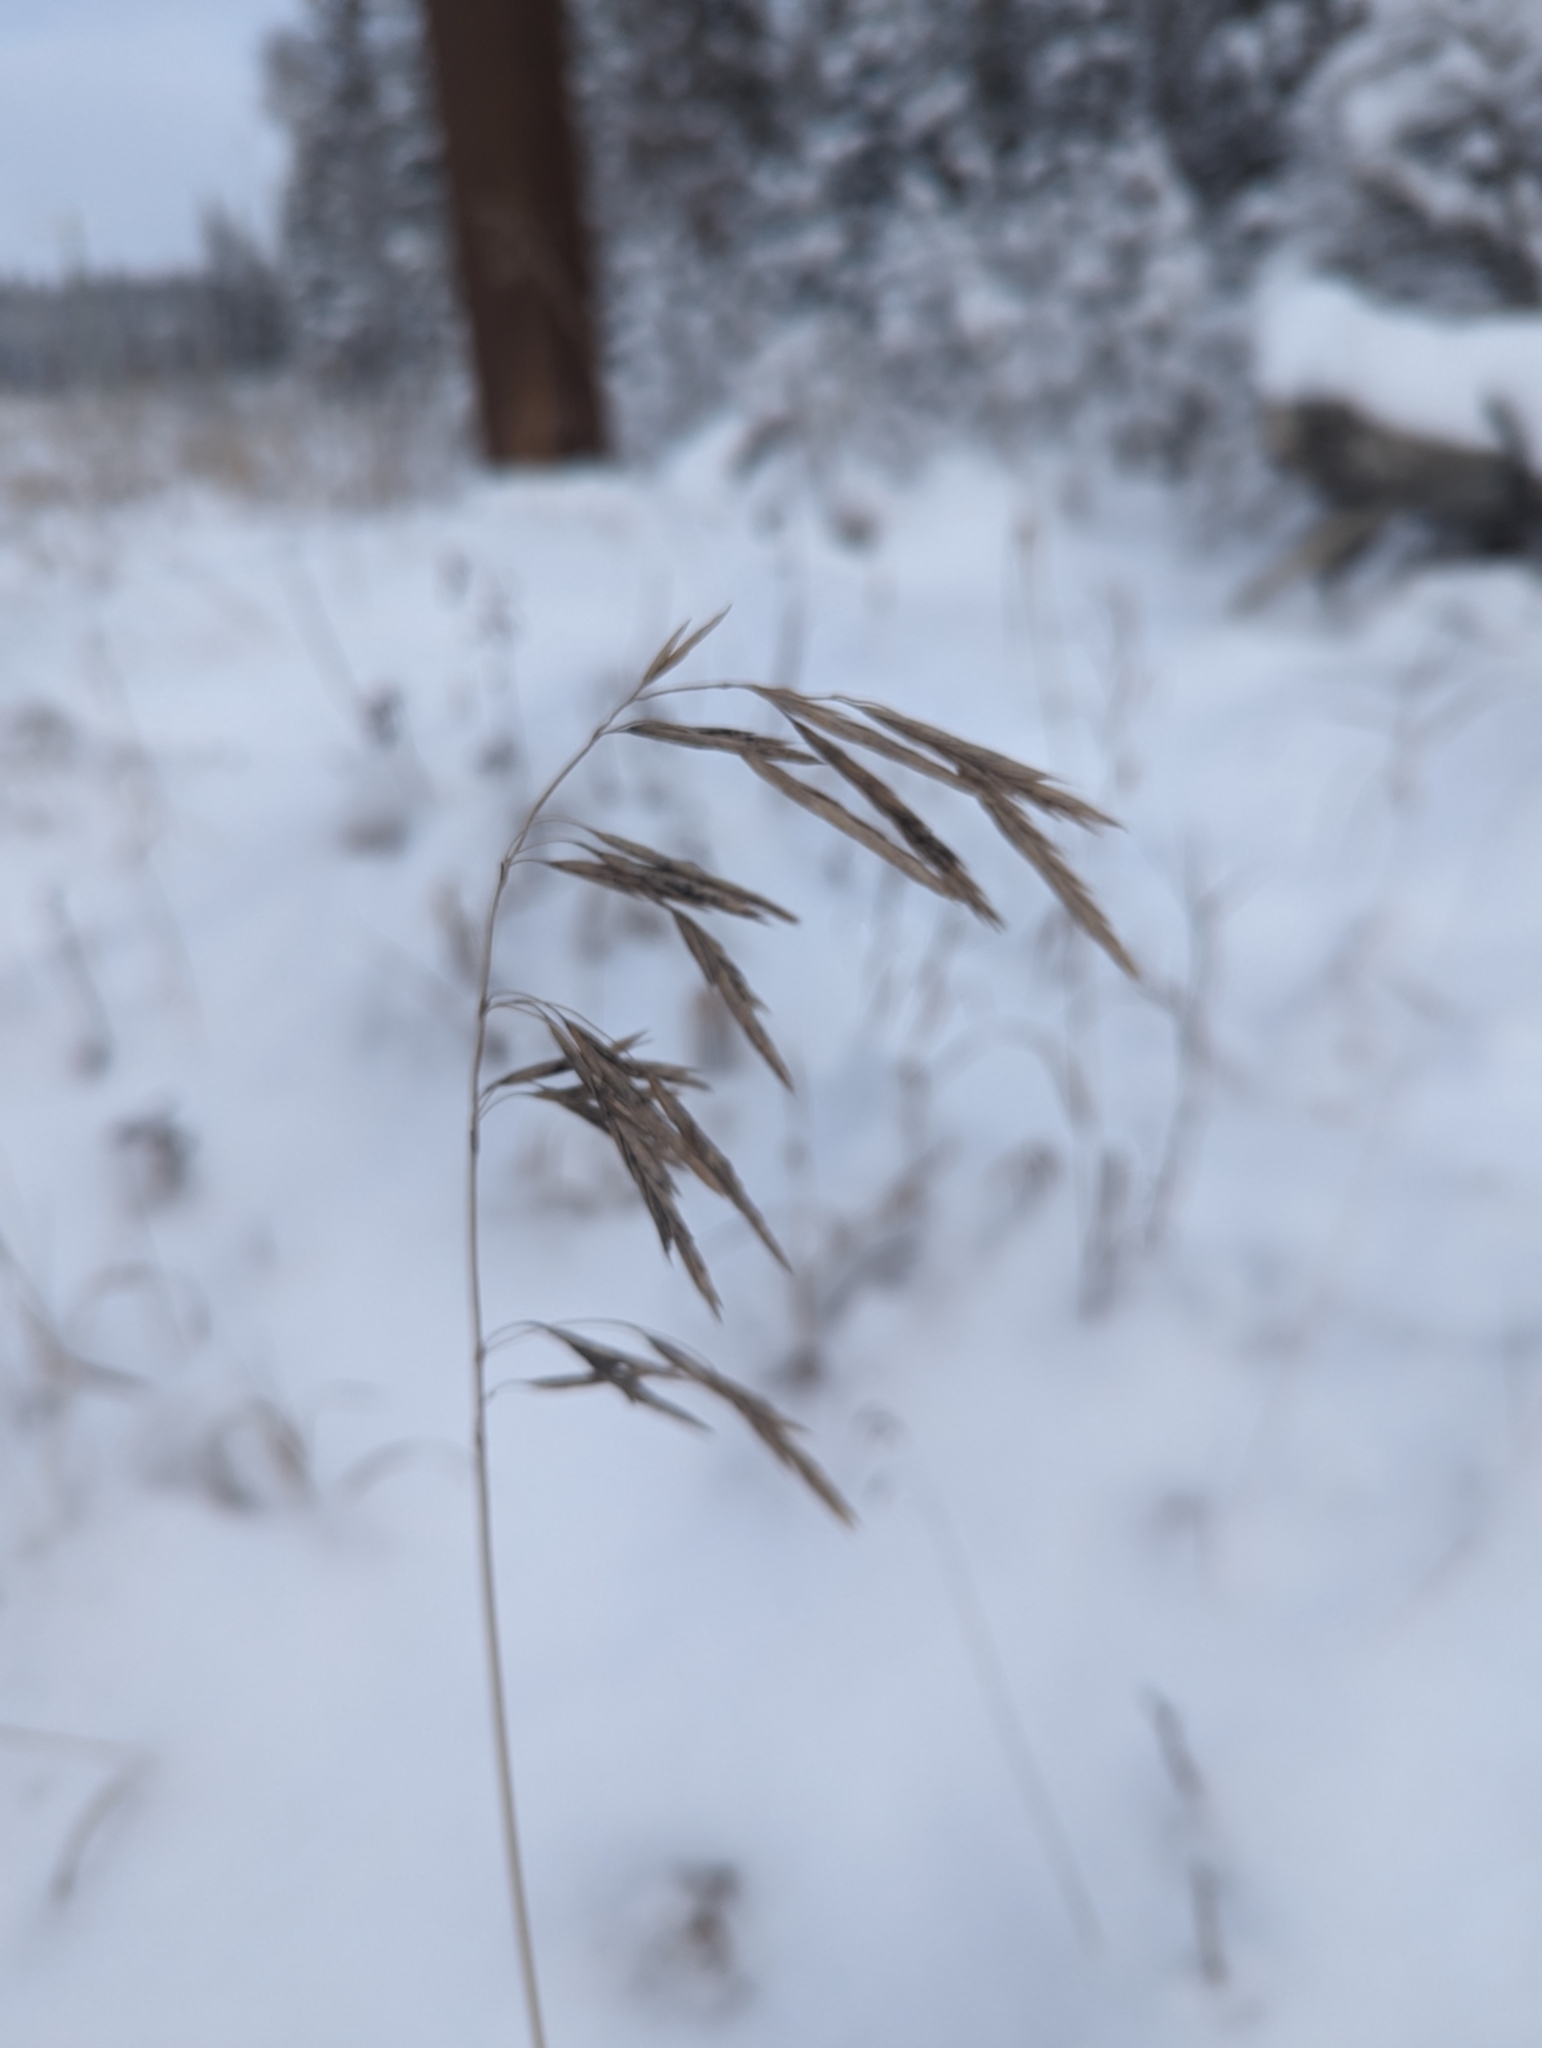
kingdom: Plantae
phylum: Tracheophyta
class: Liliopsida
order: Poales
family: Poaceae
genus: Bromus
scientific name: Bromus inermis
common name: Smooth brome
